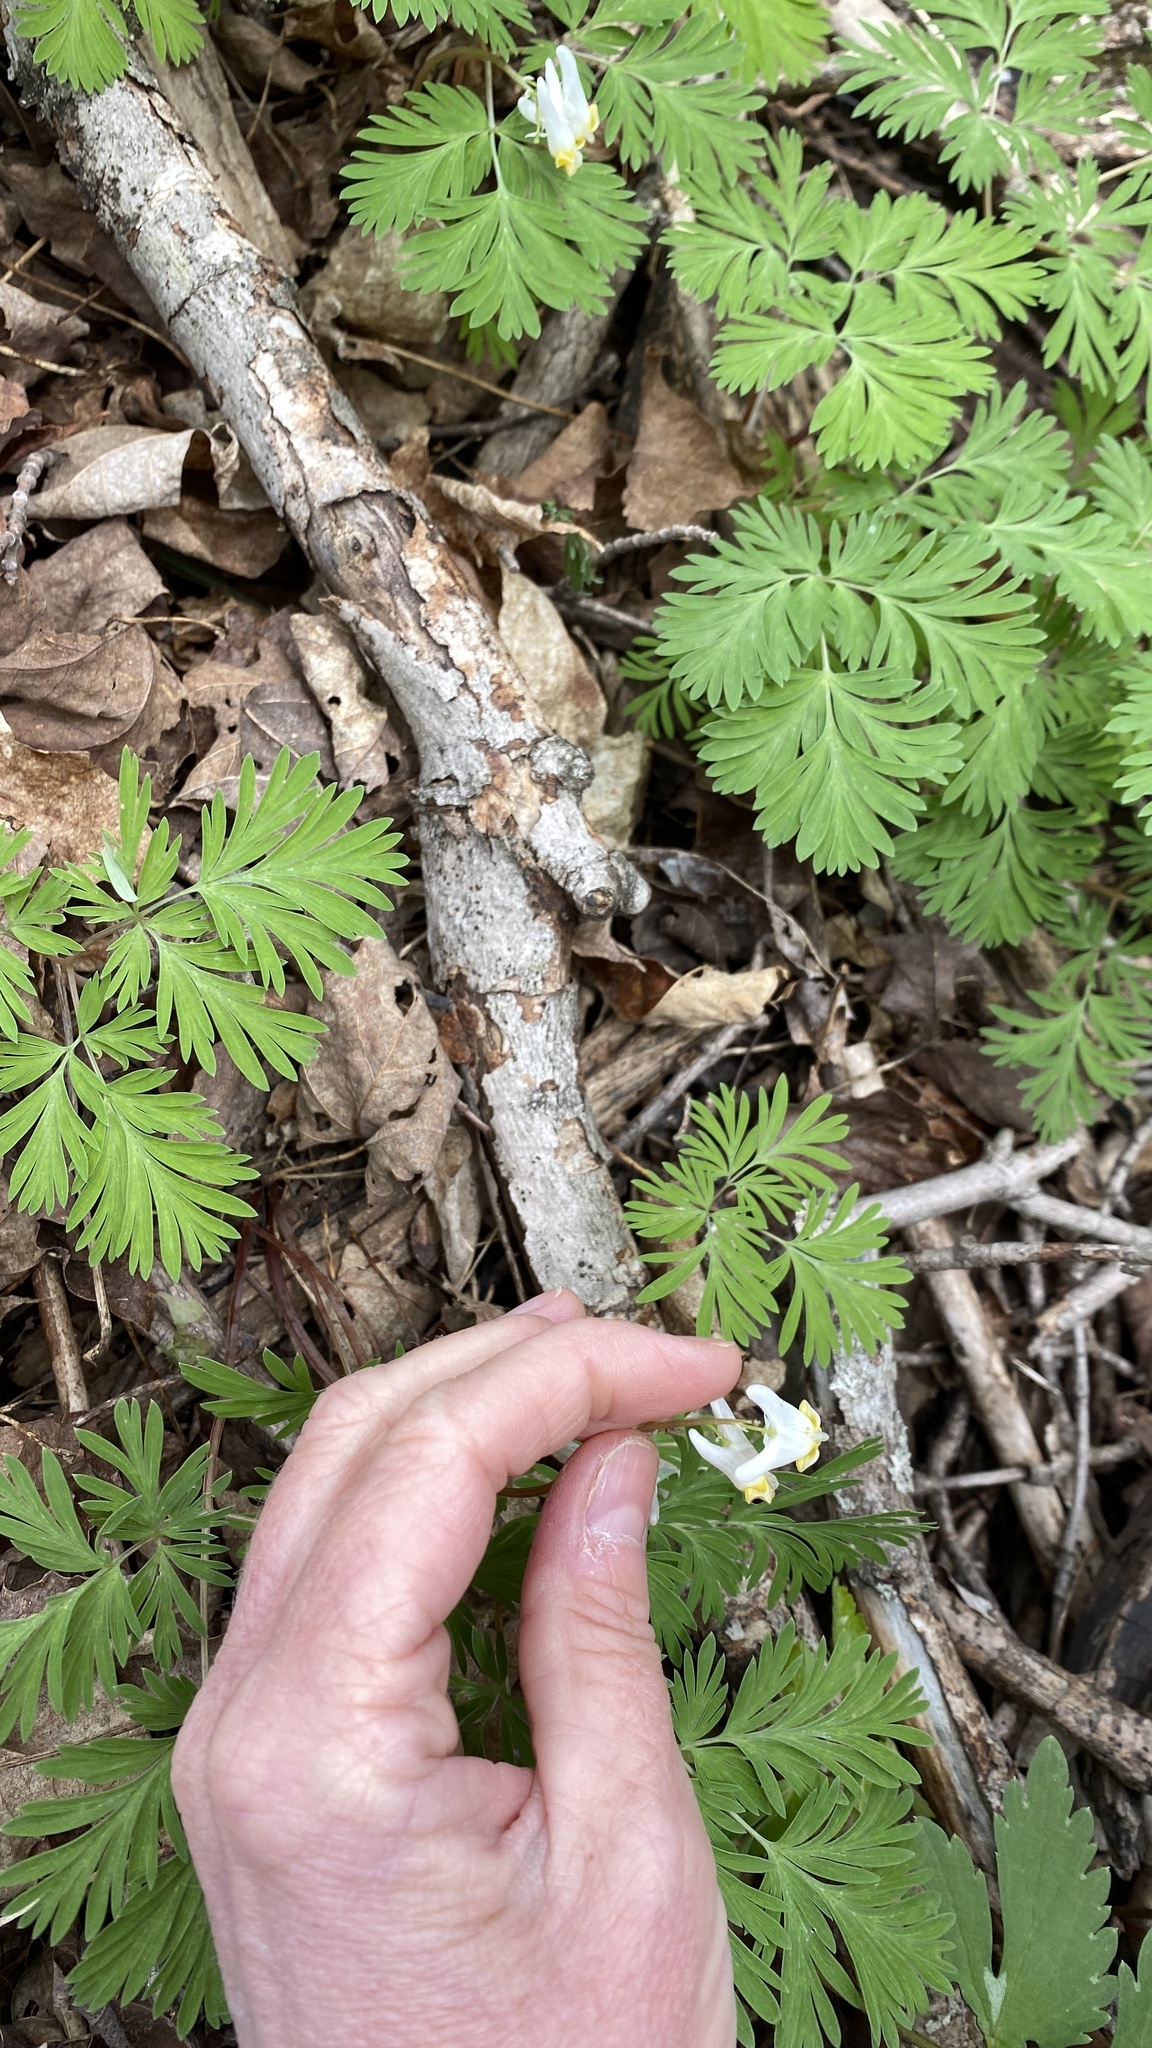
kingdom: Plantae
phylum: Tracheophyta
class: Magnoliopsida
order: Ranunculales
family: Papaveraceae
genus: Dicentra
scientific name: Dicentra cucullaria
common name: Dutchman's breeches
